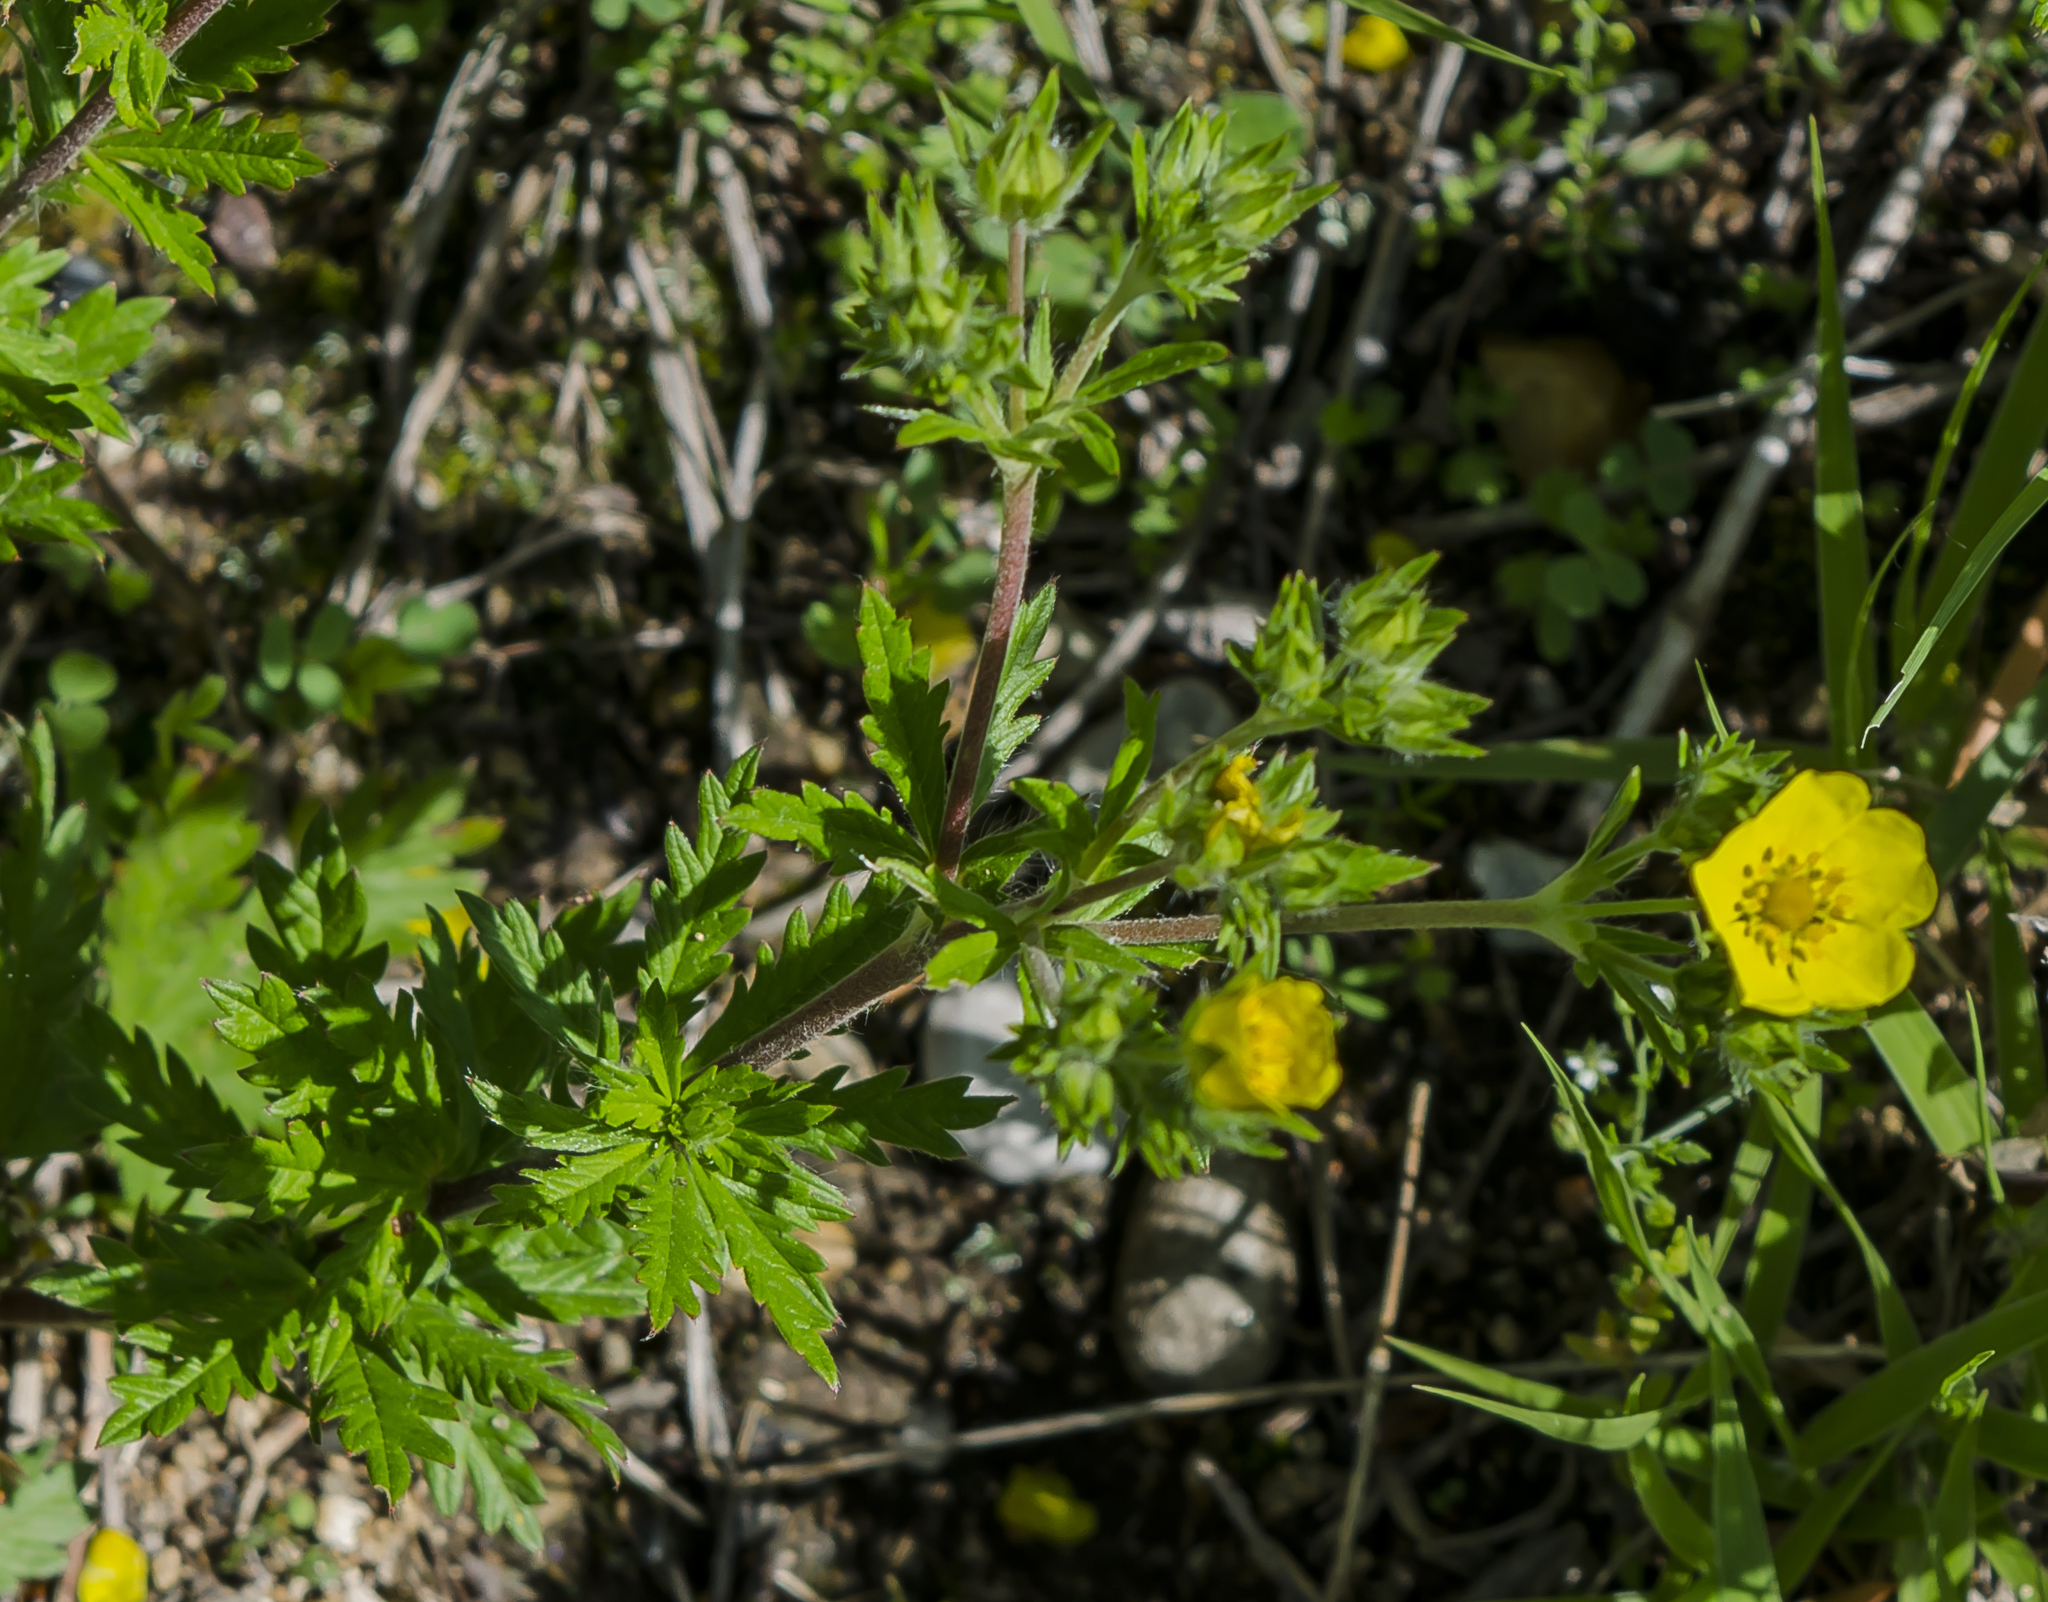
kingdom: Plantae
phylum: Tracheophyta
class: Magnoliopsida
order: Rosales
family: Rosaceae
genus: Potentilla
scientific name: Potentilla norvegica
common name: Ternate-leaved cinquefoil
